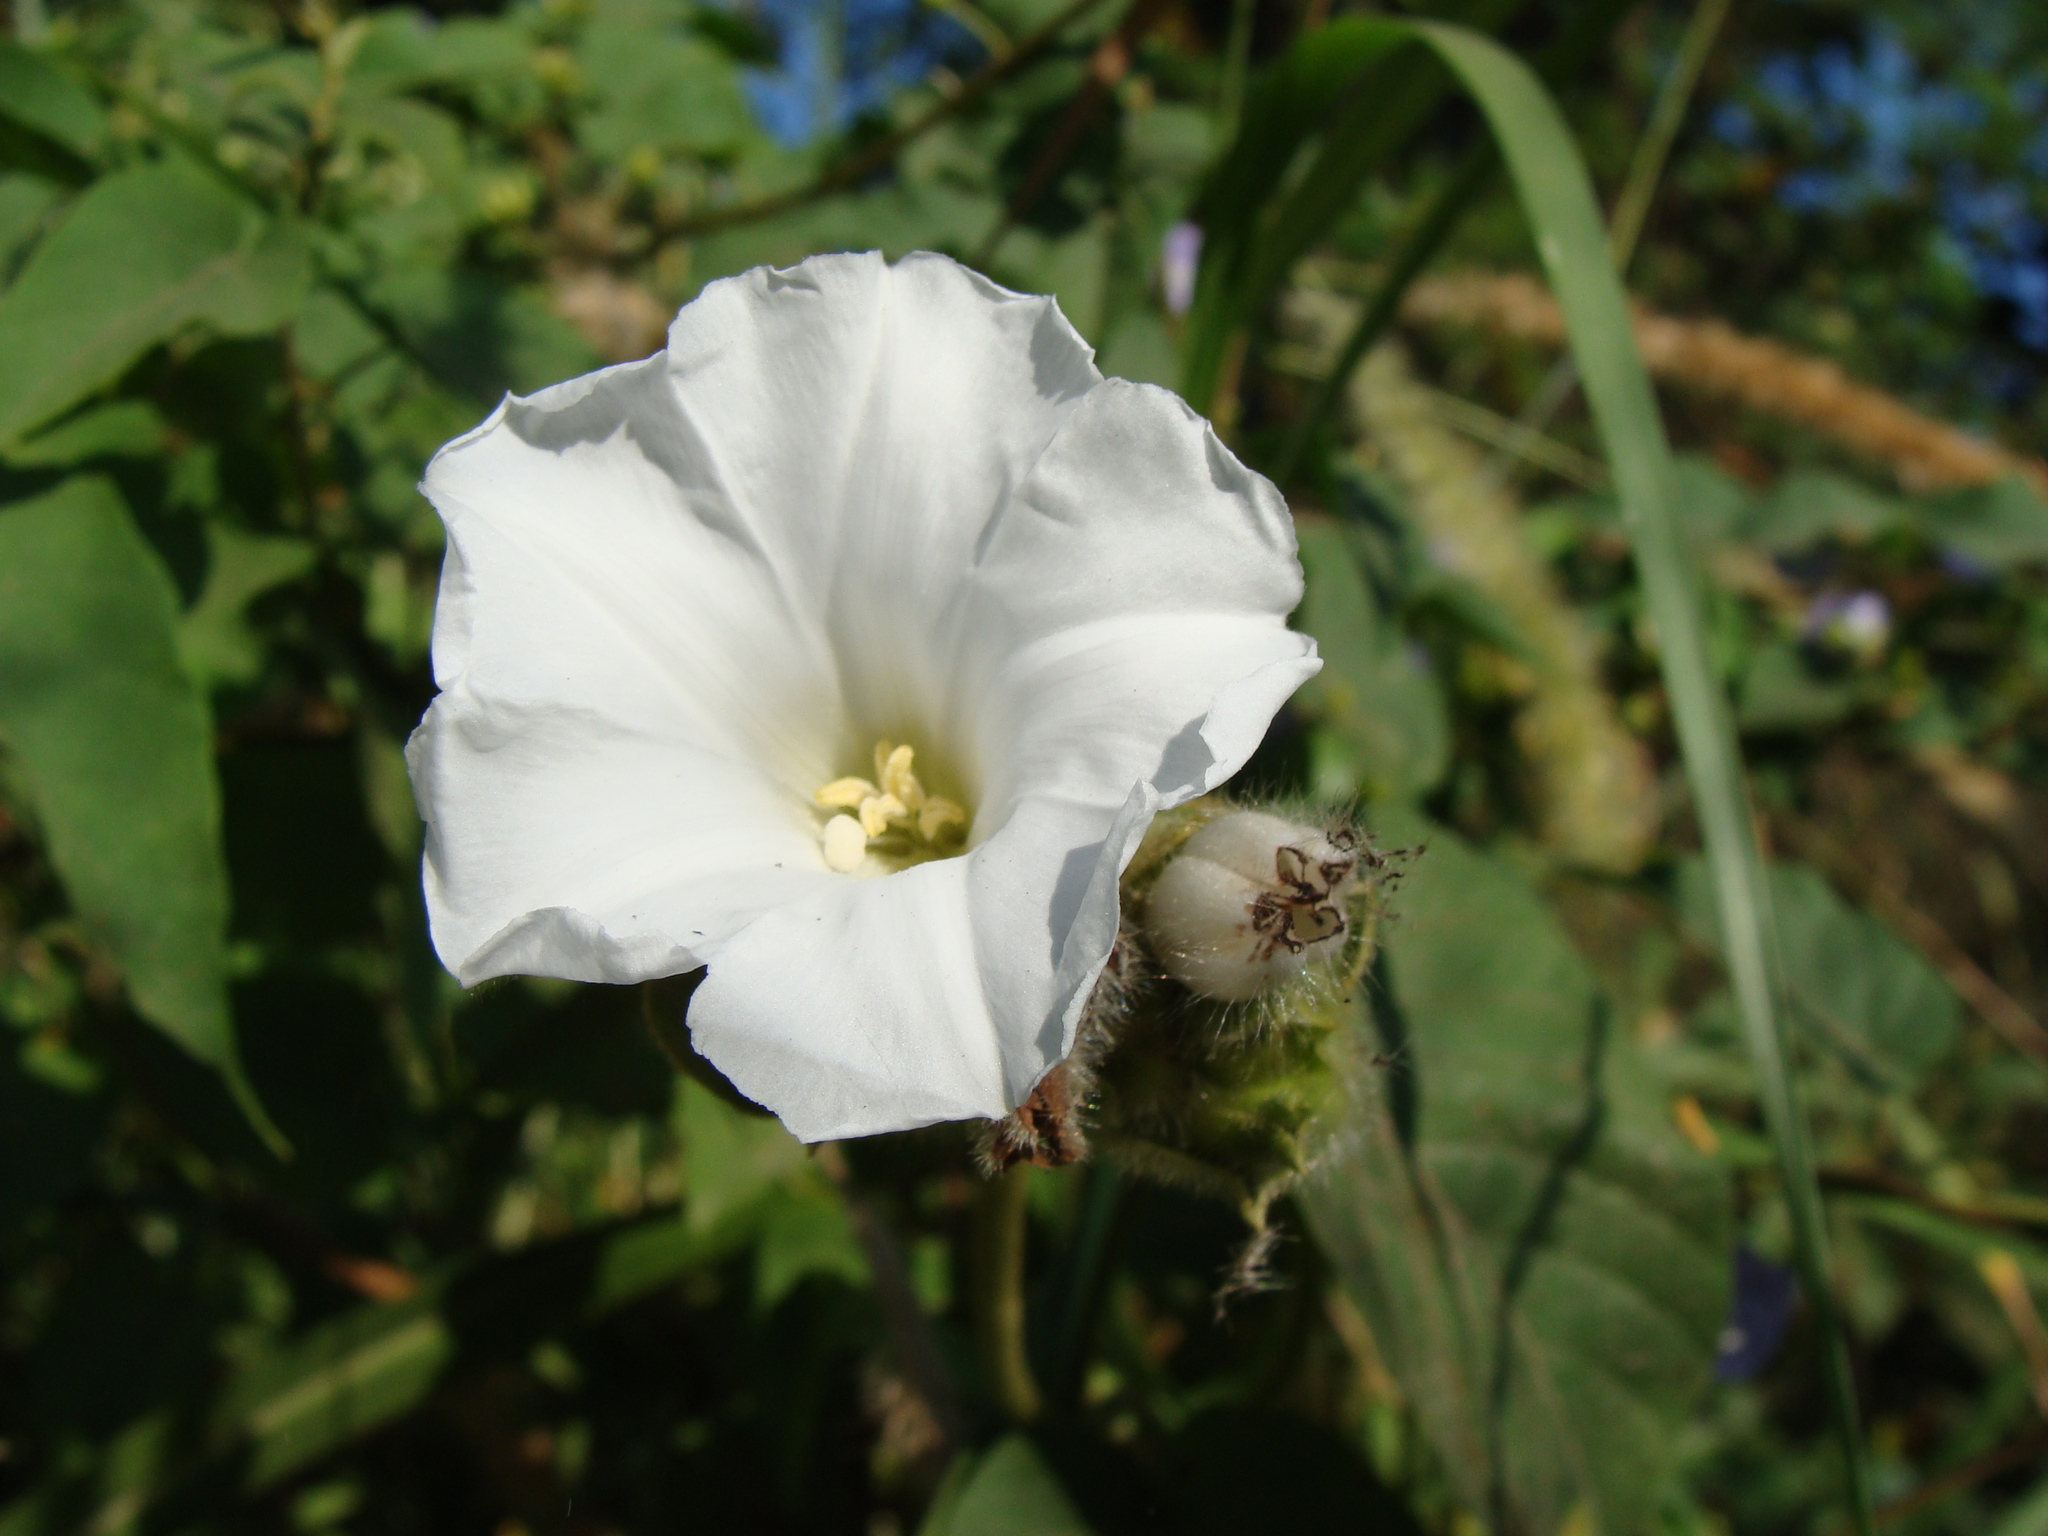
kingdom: Plantae
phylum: Tracheophyta
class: Magnoliopsida
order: Solanales
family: Convolvulaceae
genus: Odonellia
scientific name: Odonellia hirtiflora
